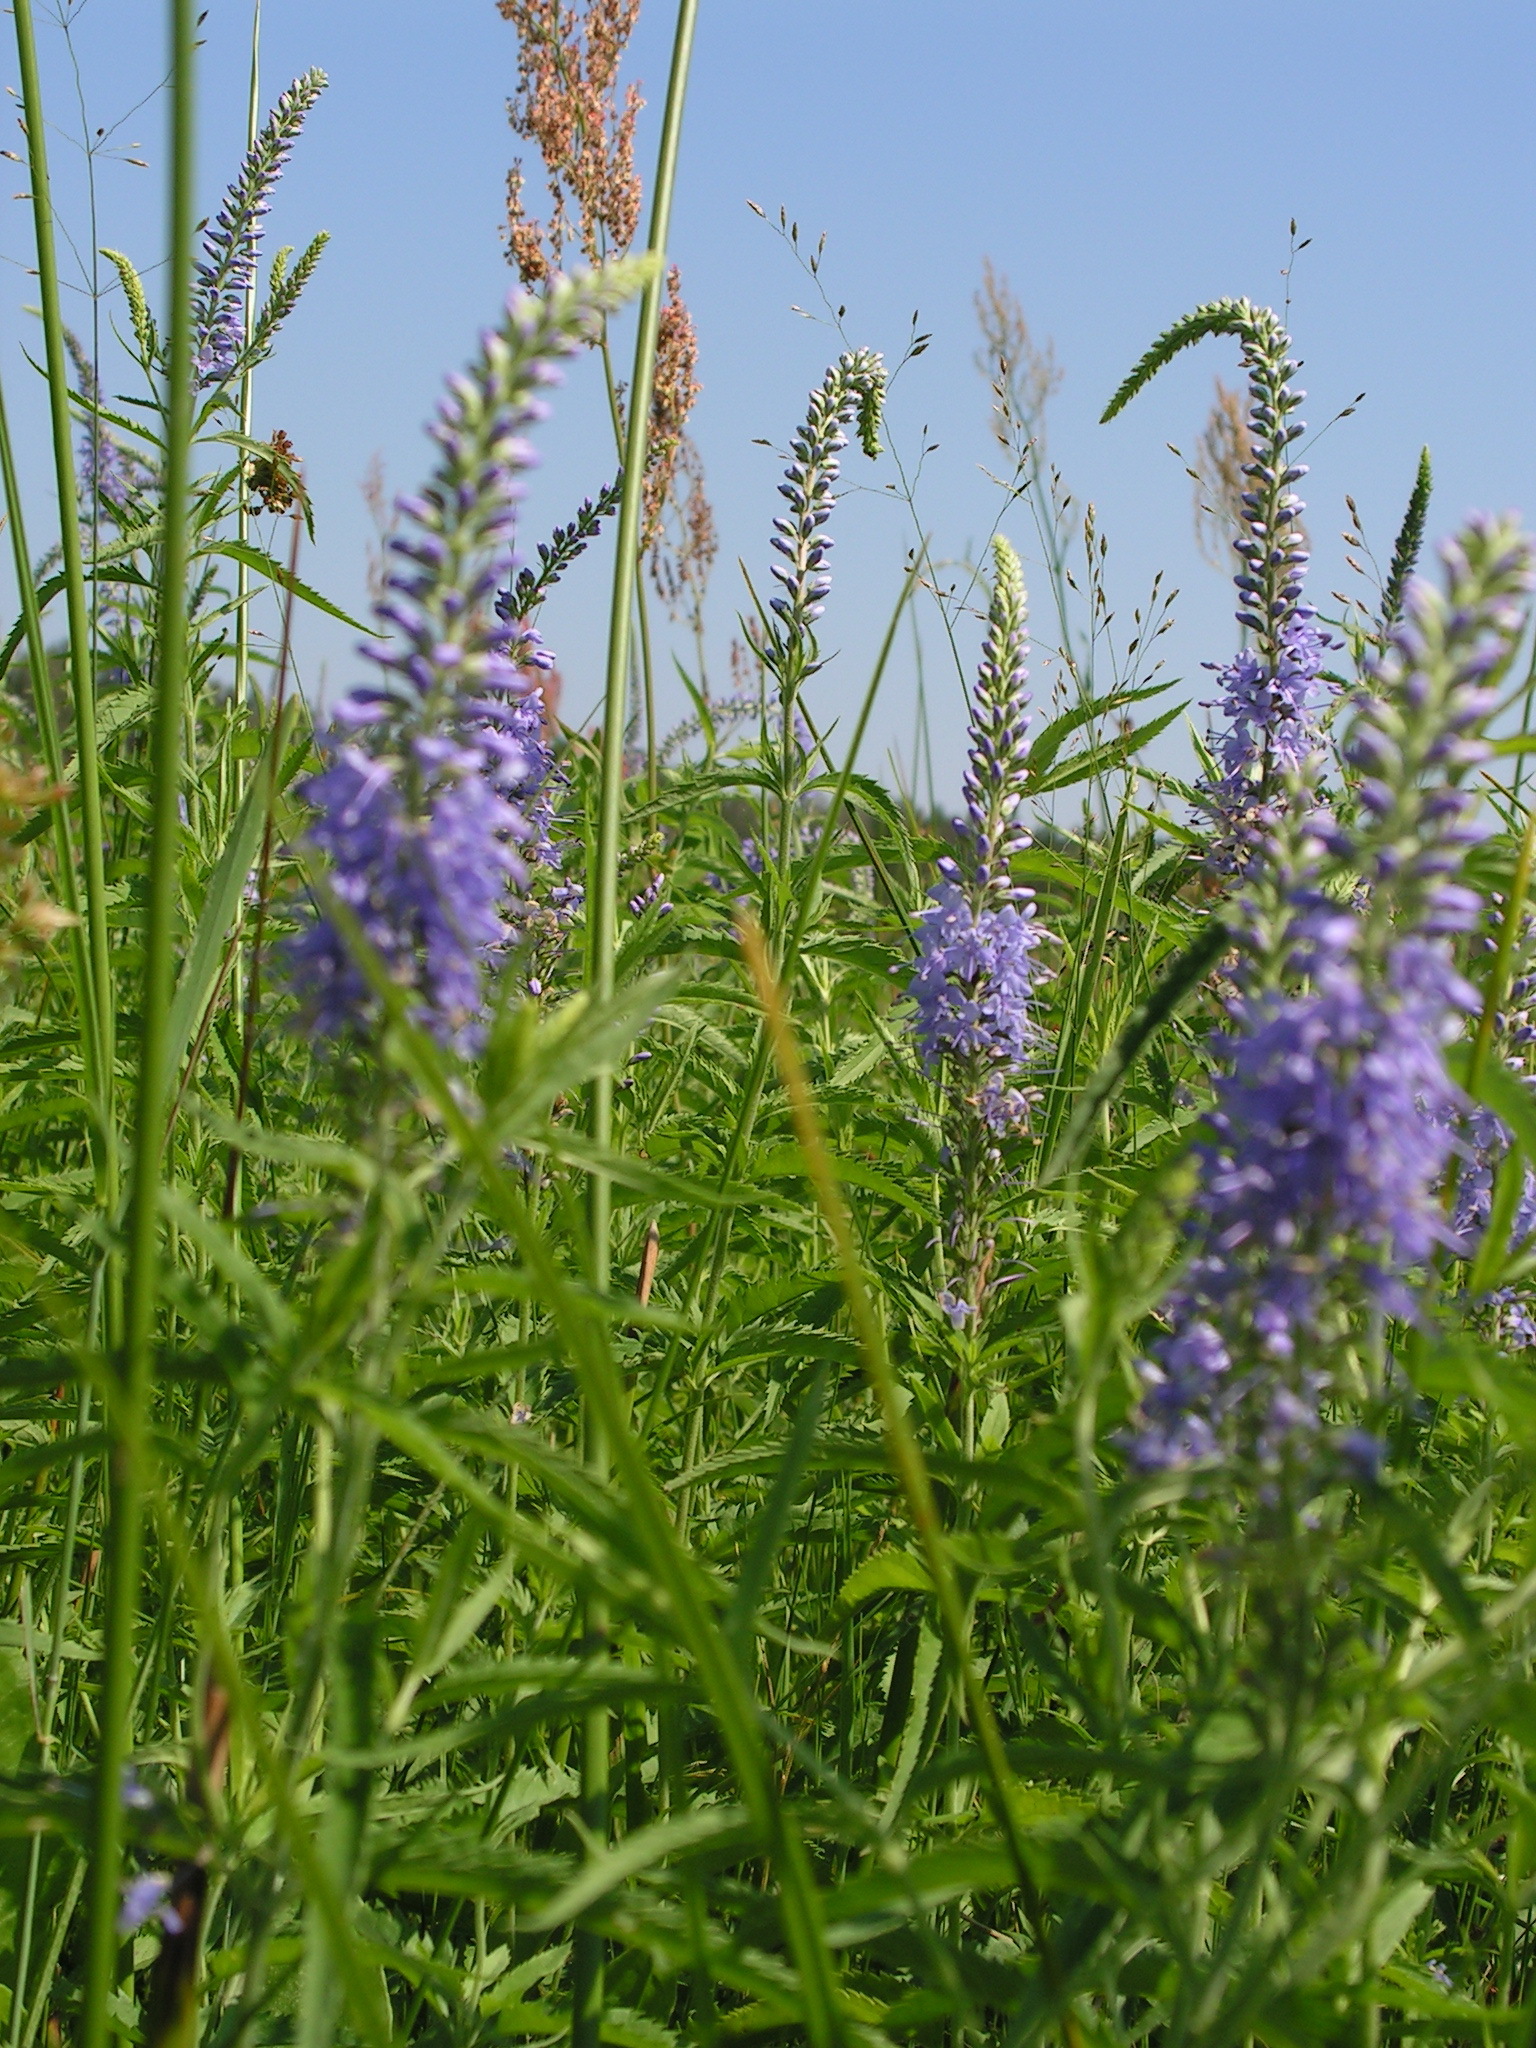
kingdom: Plantae
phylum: Tracheophyta
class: Magnoliopsida
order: Lamiales
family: Plantaginaceae
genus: Veronica
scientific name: Veronica longifolia
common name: Garden speedwell
